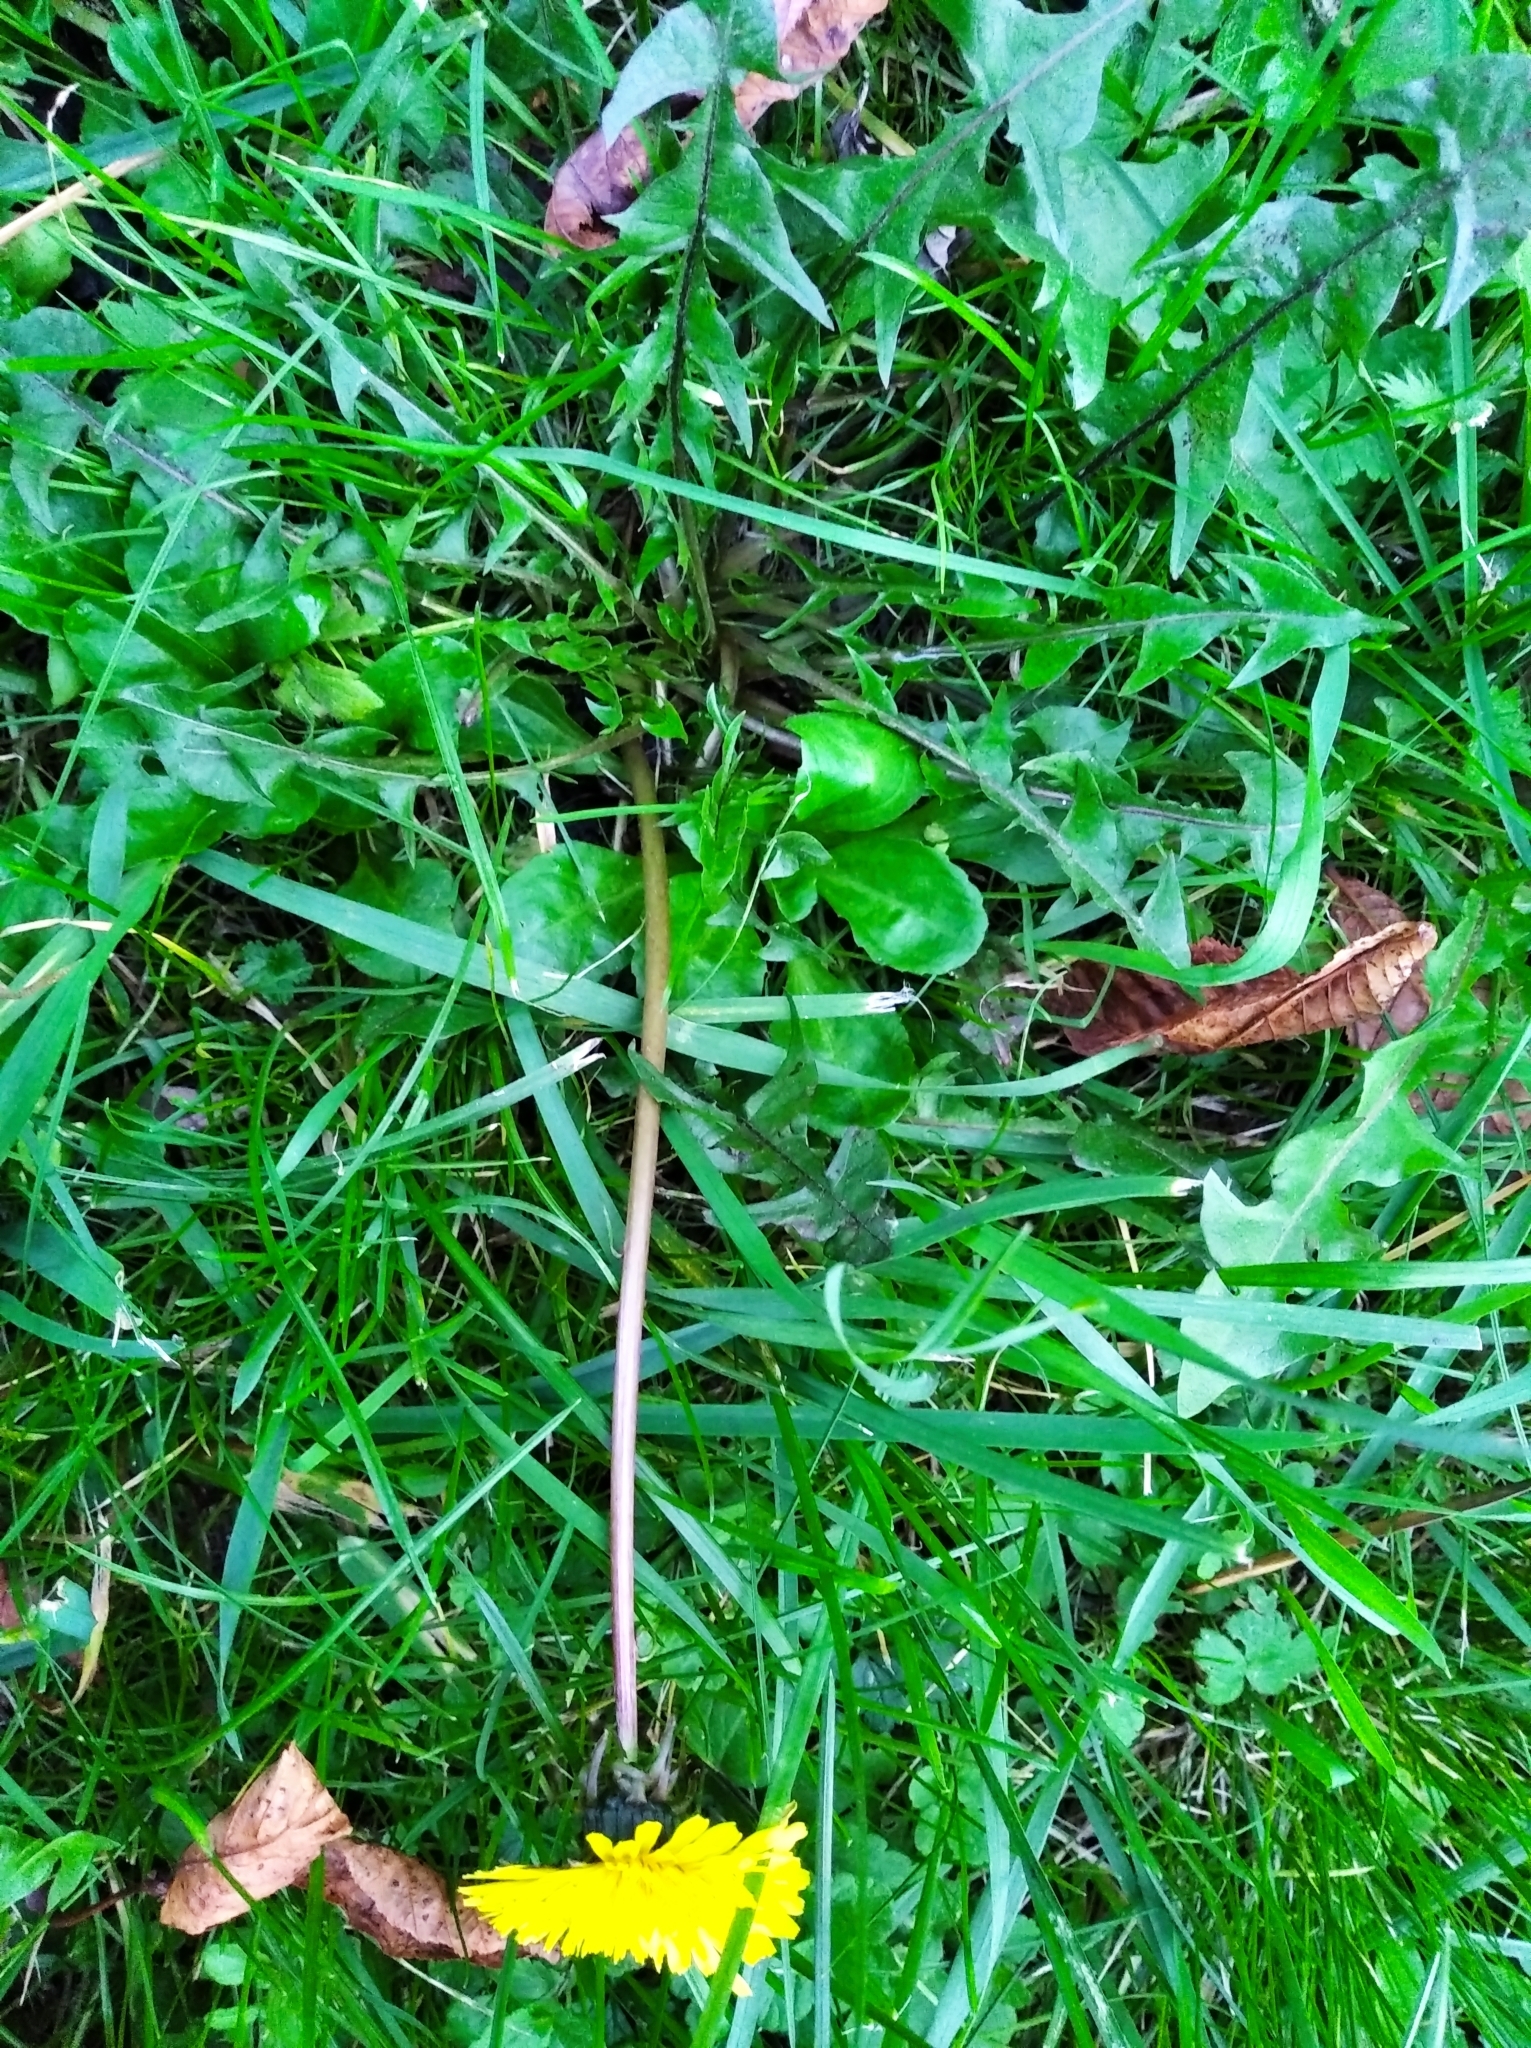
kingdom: Plantae
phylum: Tracheophyta
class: Magnoliopsida
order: Asterales
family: Asteraceae
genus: Taraxacum
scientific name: Taraxacum officinale
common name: Common dandelion
